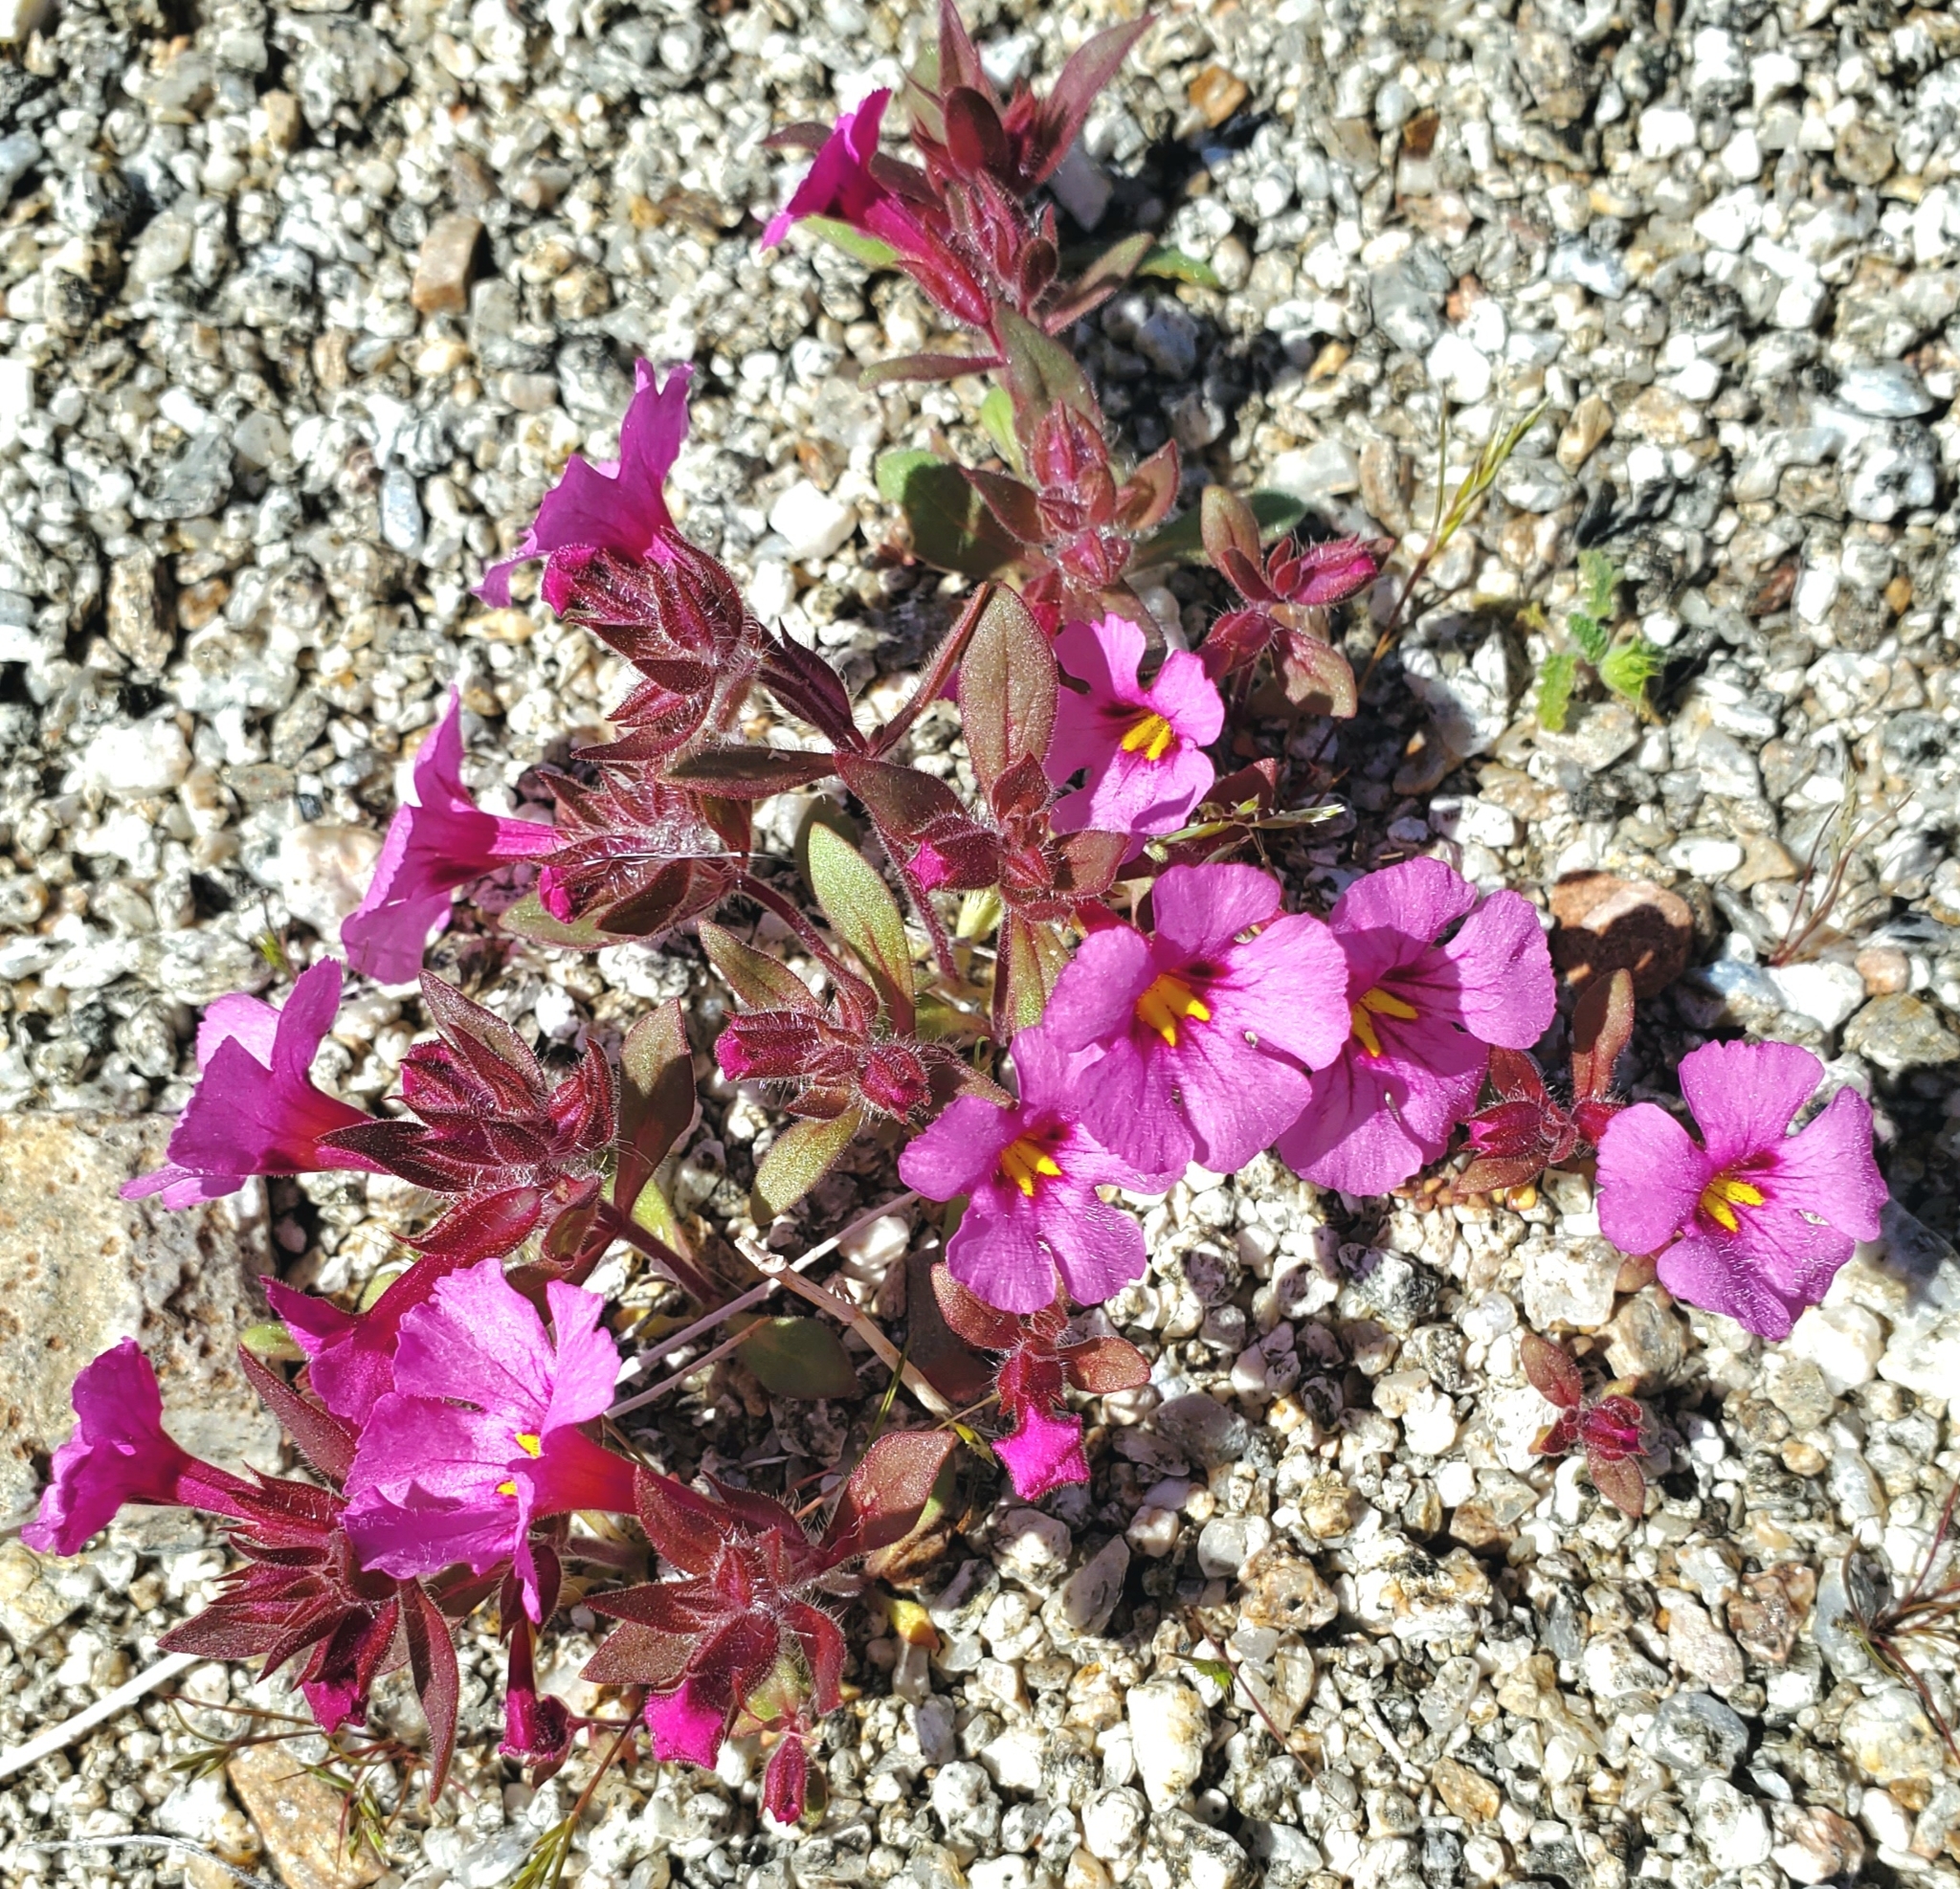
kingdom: Plantae
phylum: Tracheophyta
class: Magnoliopsida
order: Lamiales
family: Phrymaceae
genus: Diplacus
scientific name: Diplacus bigelovii
